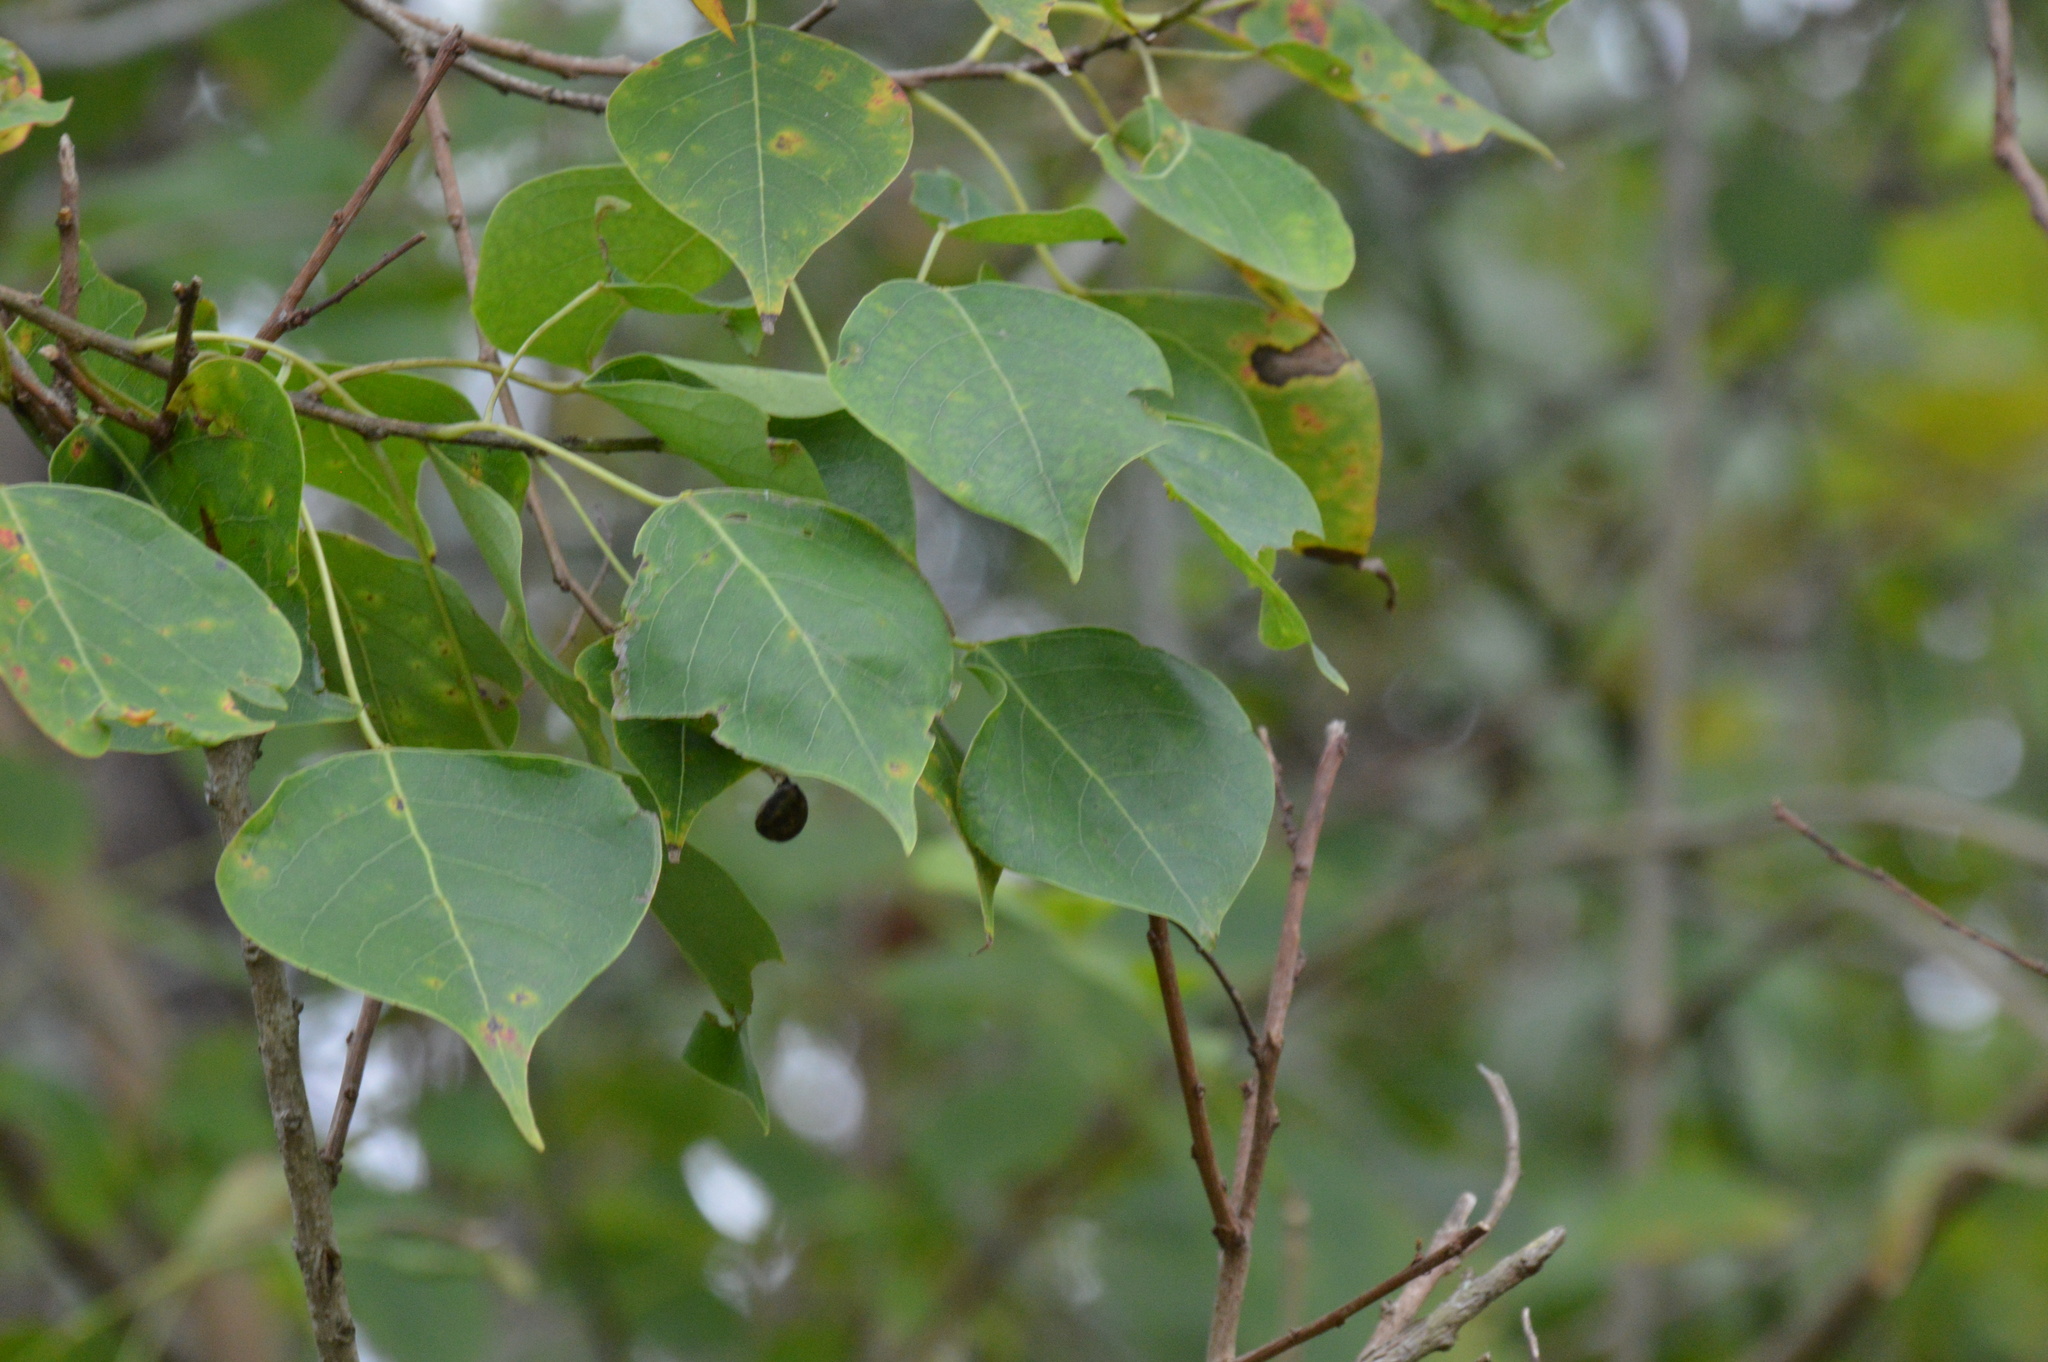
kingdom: Plantae
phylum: Tracheophyta
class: Magnoliopsida
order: Malpighiales
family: Euphorbiaceae
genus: Triadica
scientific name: Triadica sebifera
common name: Chinese tallow
